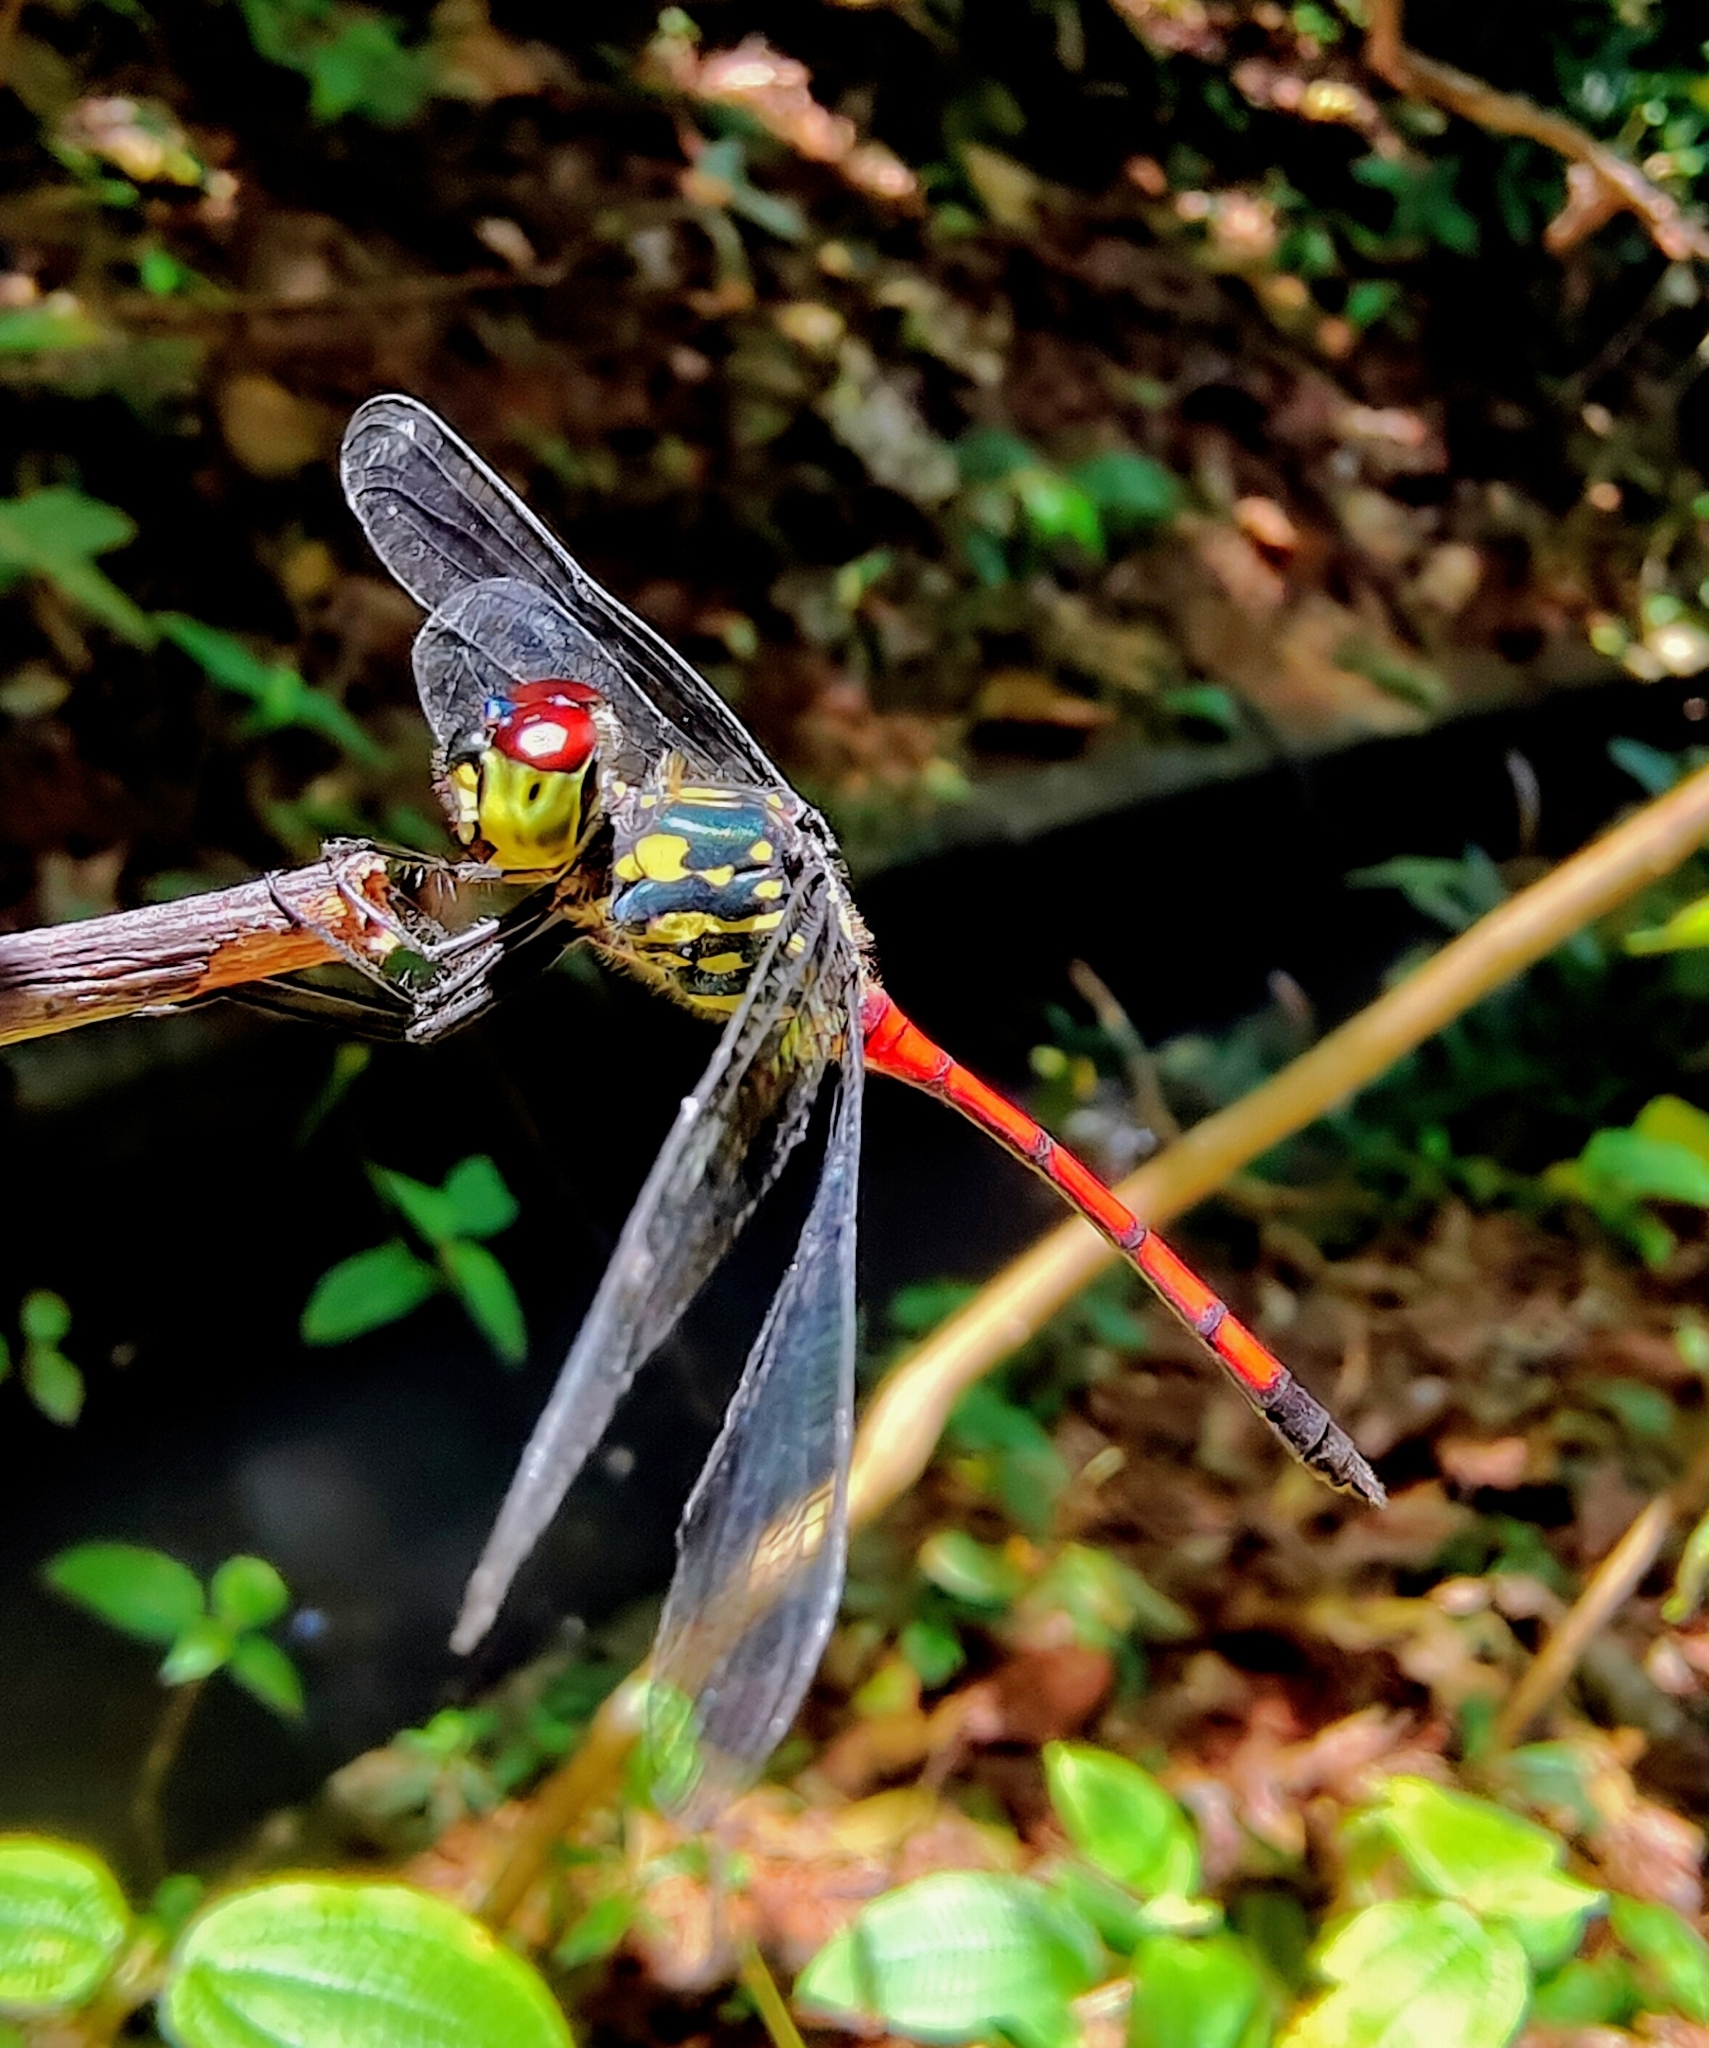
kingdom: Animalia
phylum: Arthropoda
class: Insecta
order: Odonata
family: Libellulidae
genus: Agrionoptera
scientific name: Agrionoptera insignis
